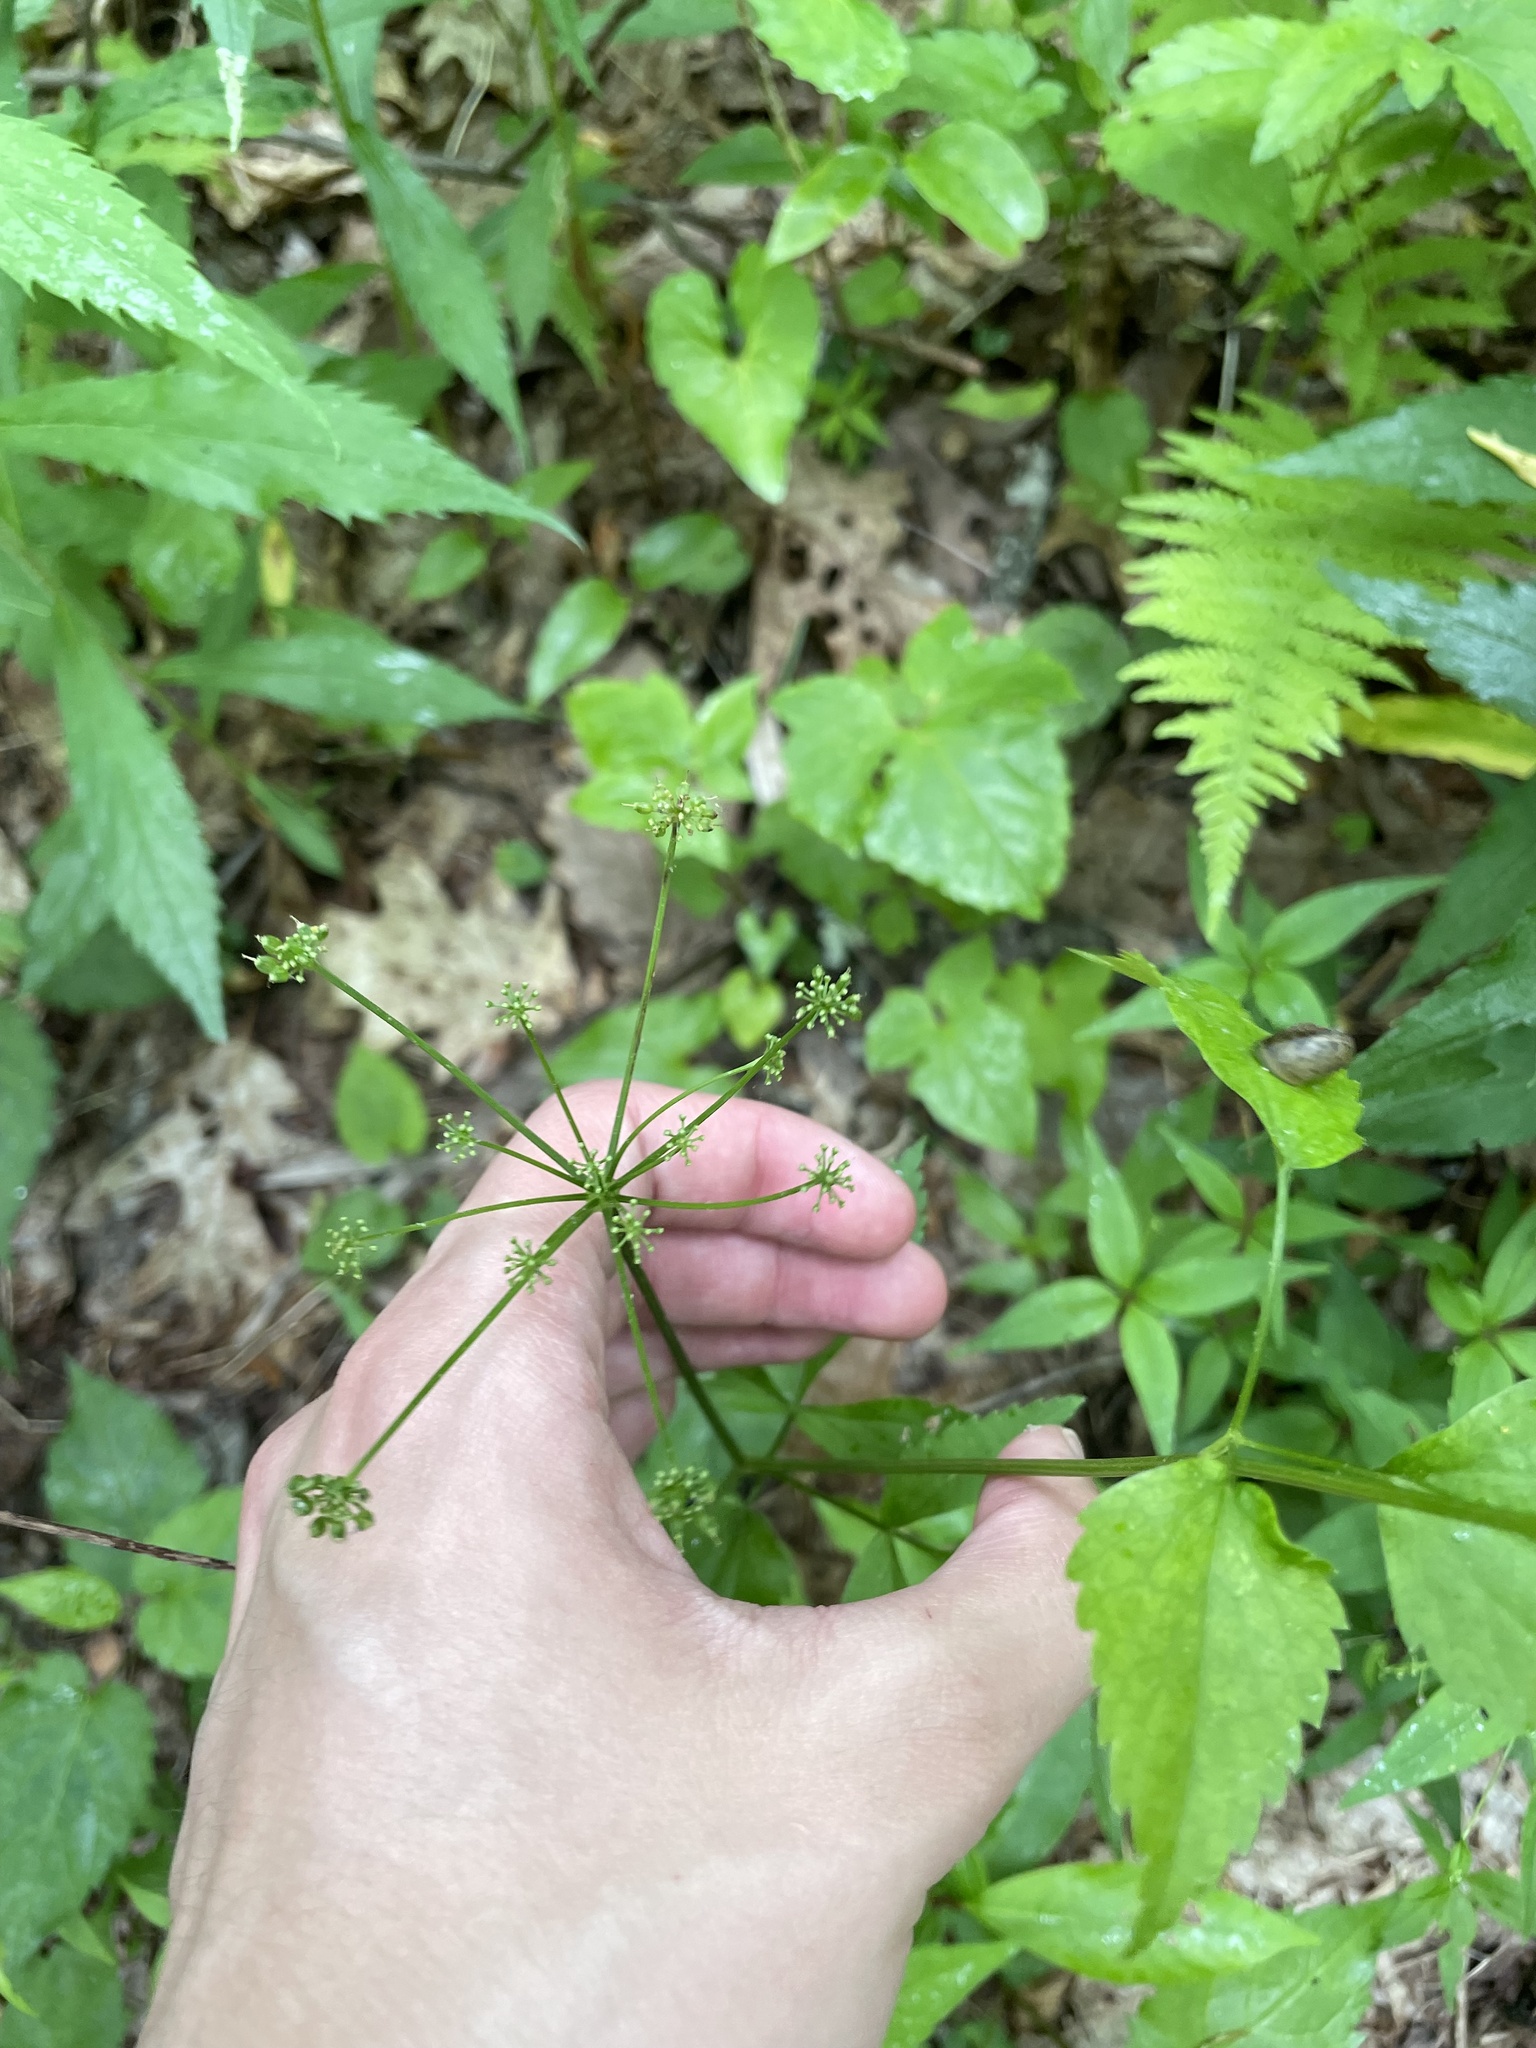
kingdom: Plantae
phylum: Tracheophyta
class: Magnoliopsida
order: Apiales
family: Apiaceae
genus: Thaspium
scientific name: Thaspium trifoliatum
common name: Purple meadow-parsnip
